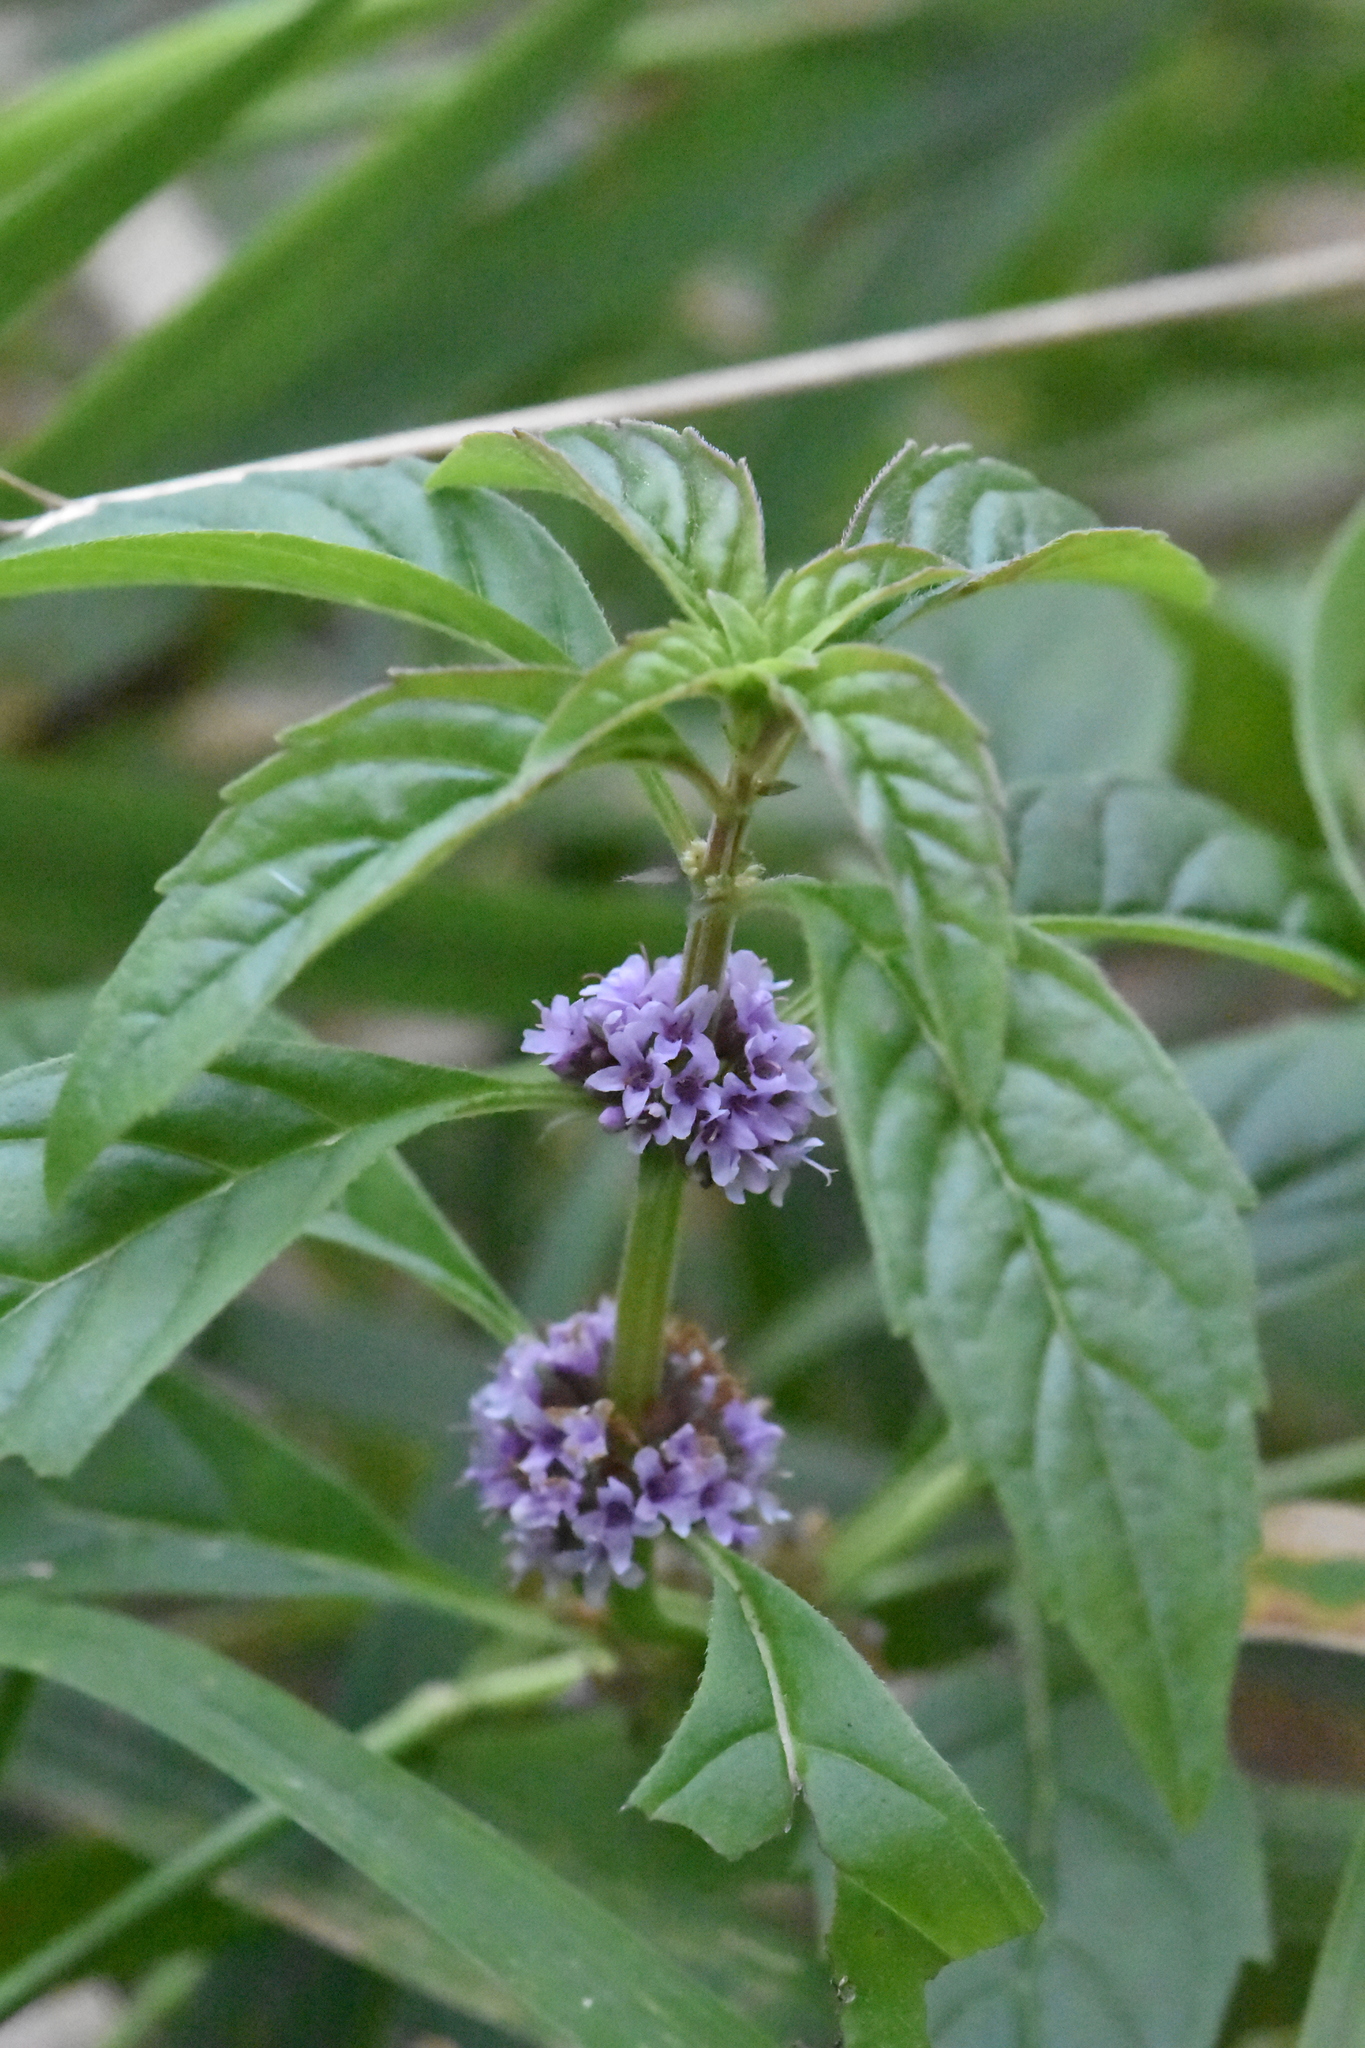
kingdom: Plantae
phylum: Tracheophyta
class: Magnoliopsida
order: Lamiales
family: Lamiaceae
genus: Mentha
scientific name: Mentha arvensis
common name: Corn mint
